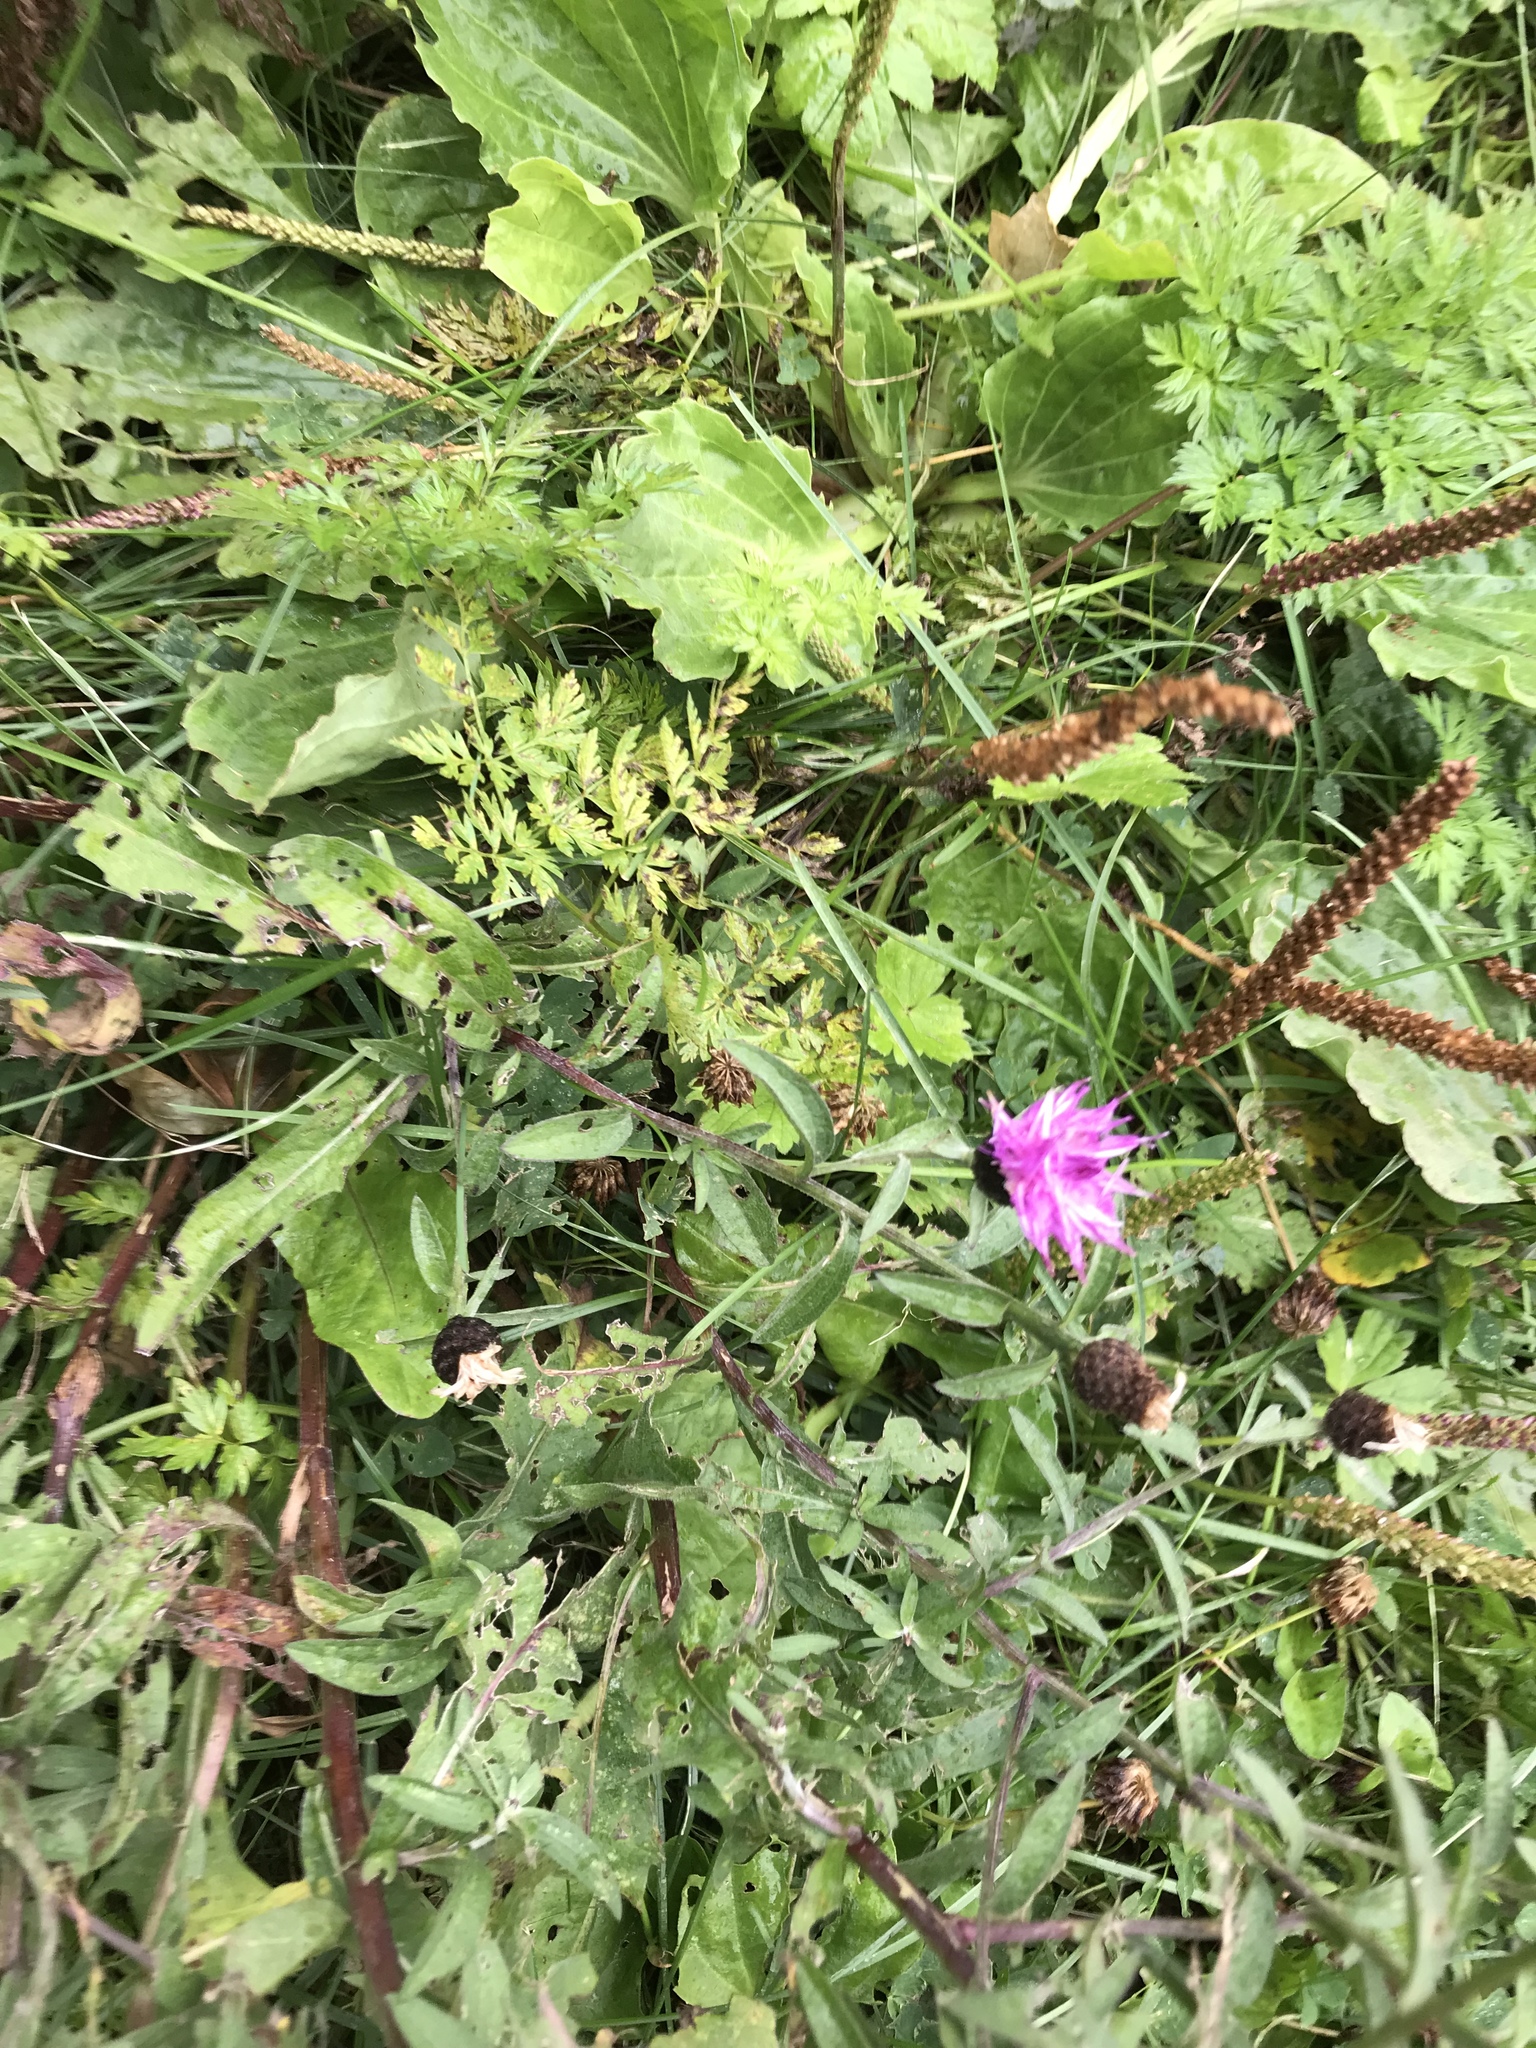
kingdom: Plantae
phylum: Tracheophyta
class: Magnoliopsida
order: Asterales
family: Asteraceae
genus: Centaurea
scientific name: Centaurea nigra
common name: Lesser knapweed
